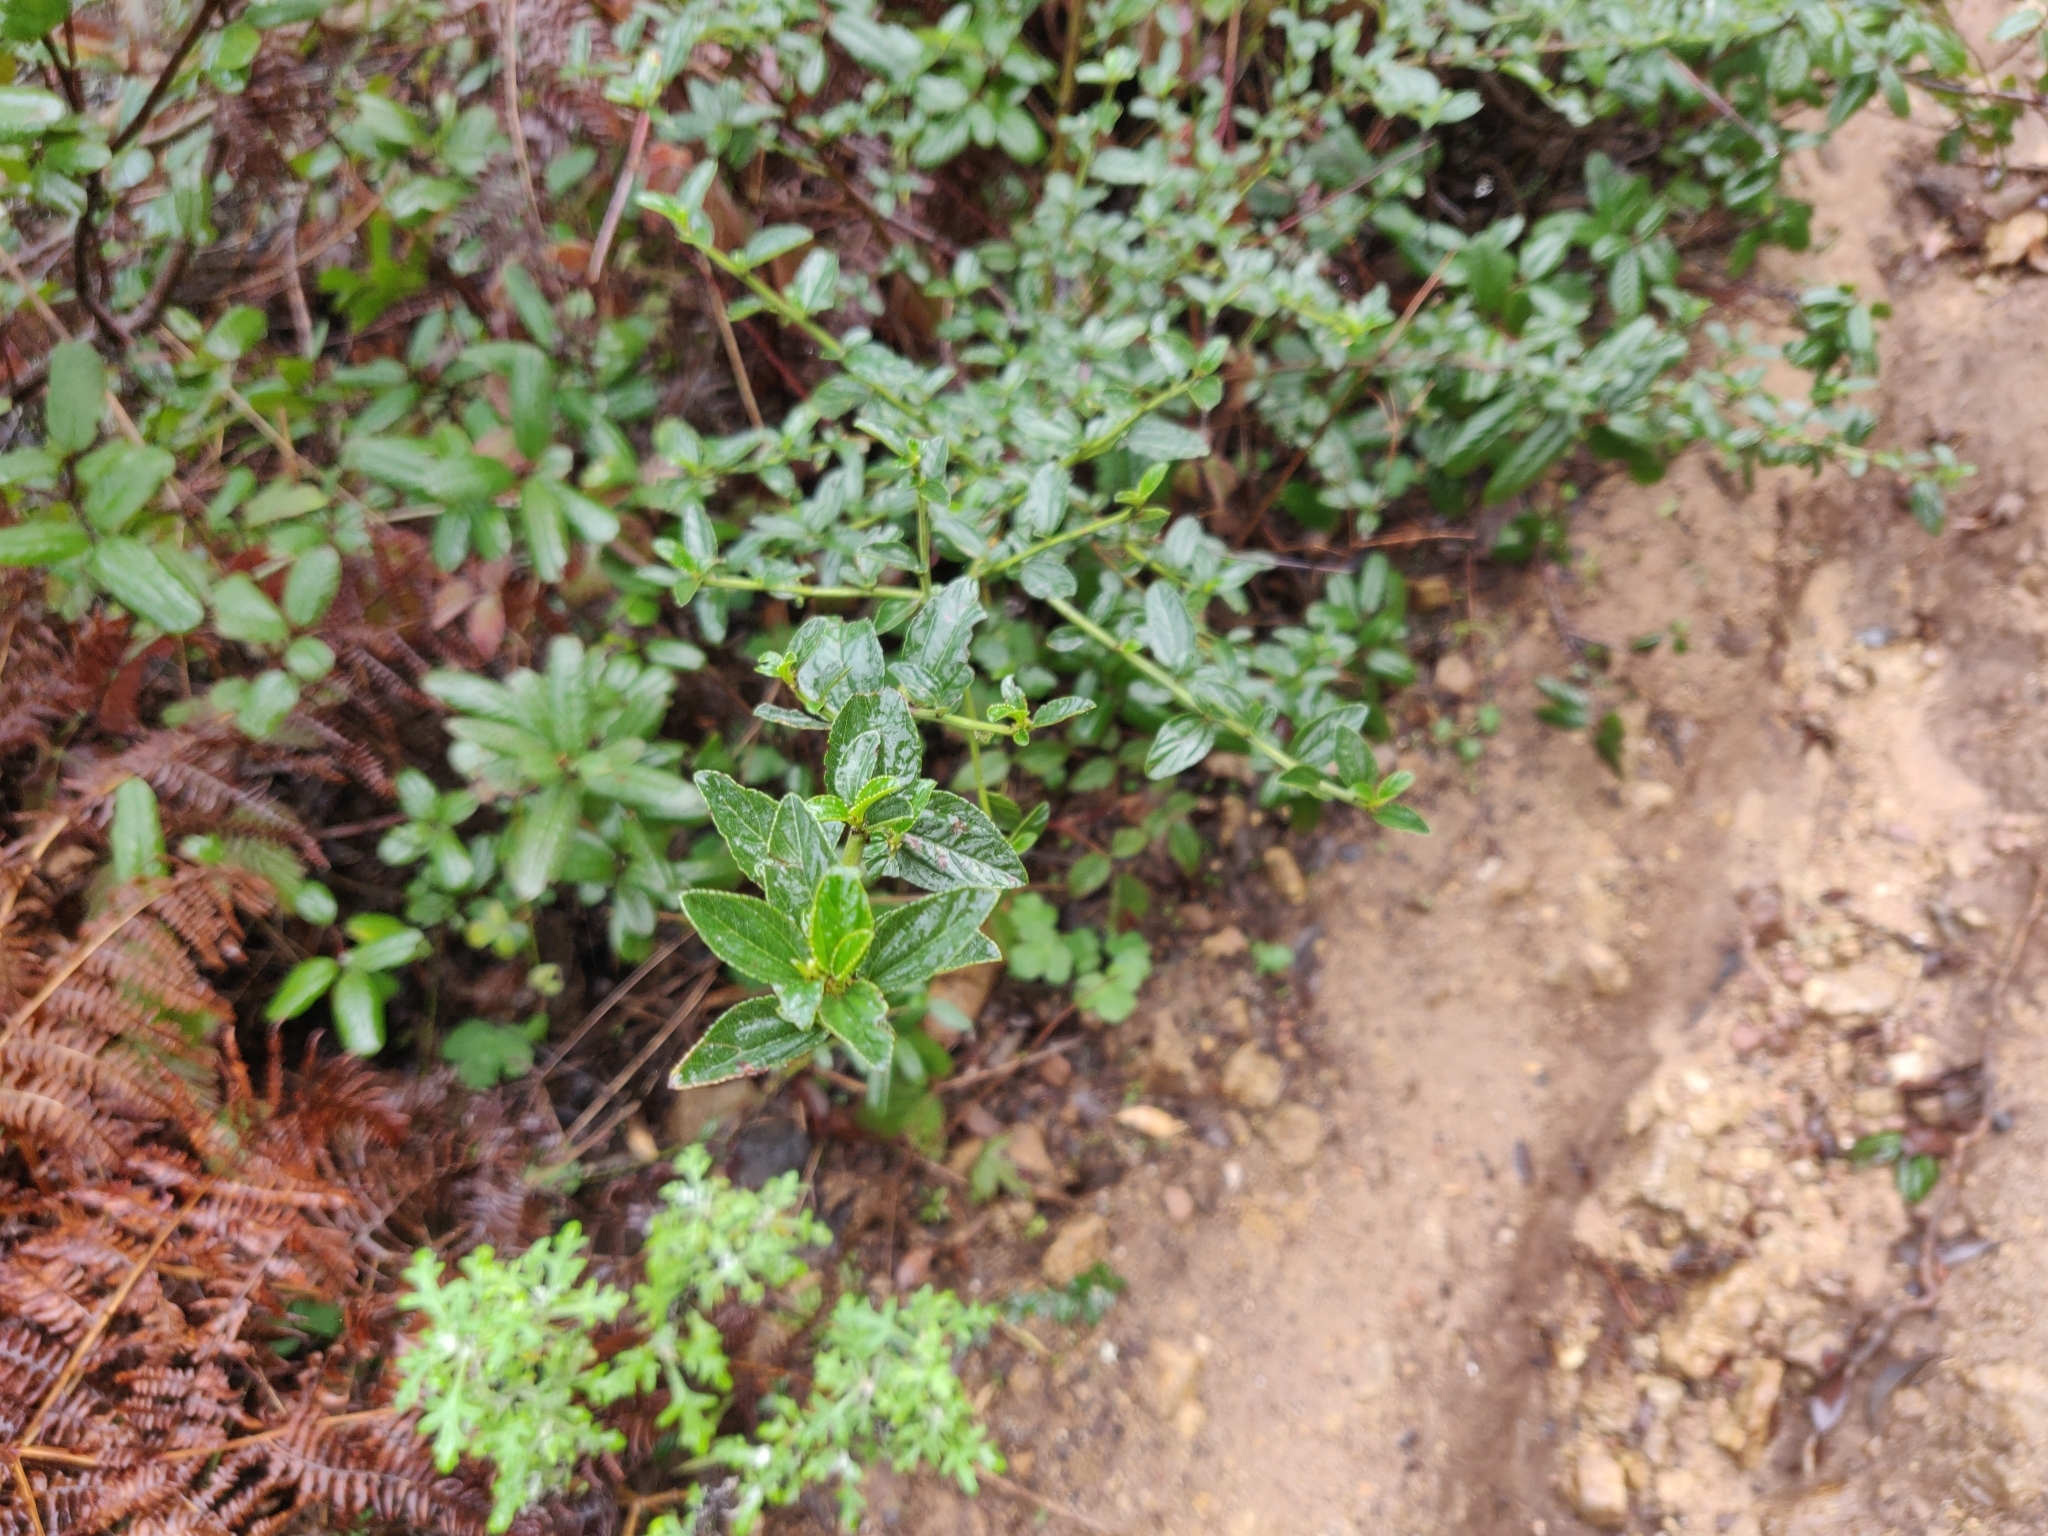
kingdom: Plantae
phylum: Tracheophyta
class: Magnoliopsida
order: Rosales
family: Rhamnaceae
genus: Ceanothus
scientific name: Ceanothus thyrsiflorus
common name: California-lilac
